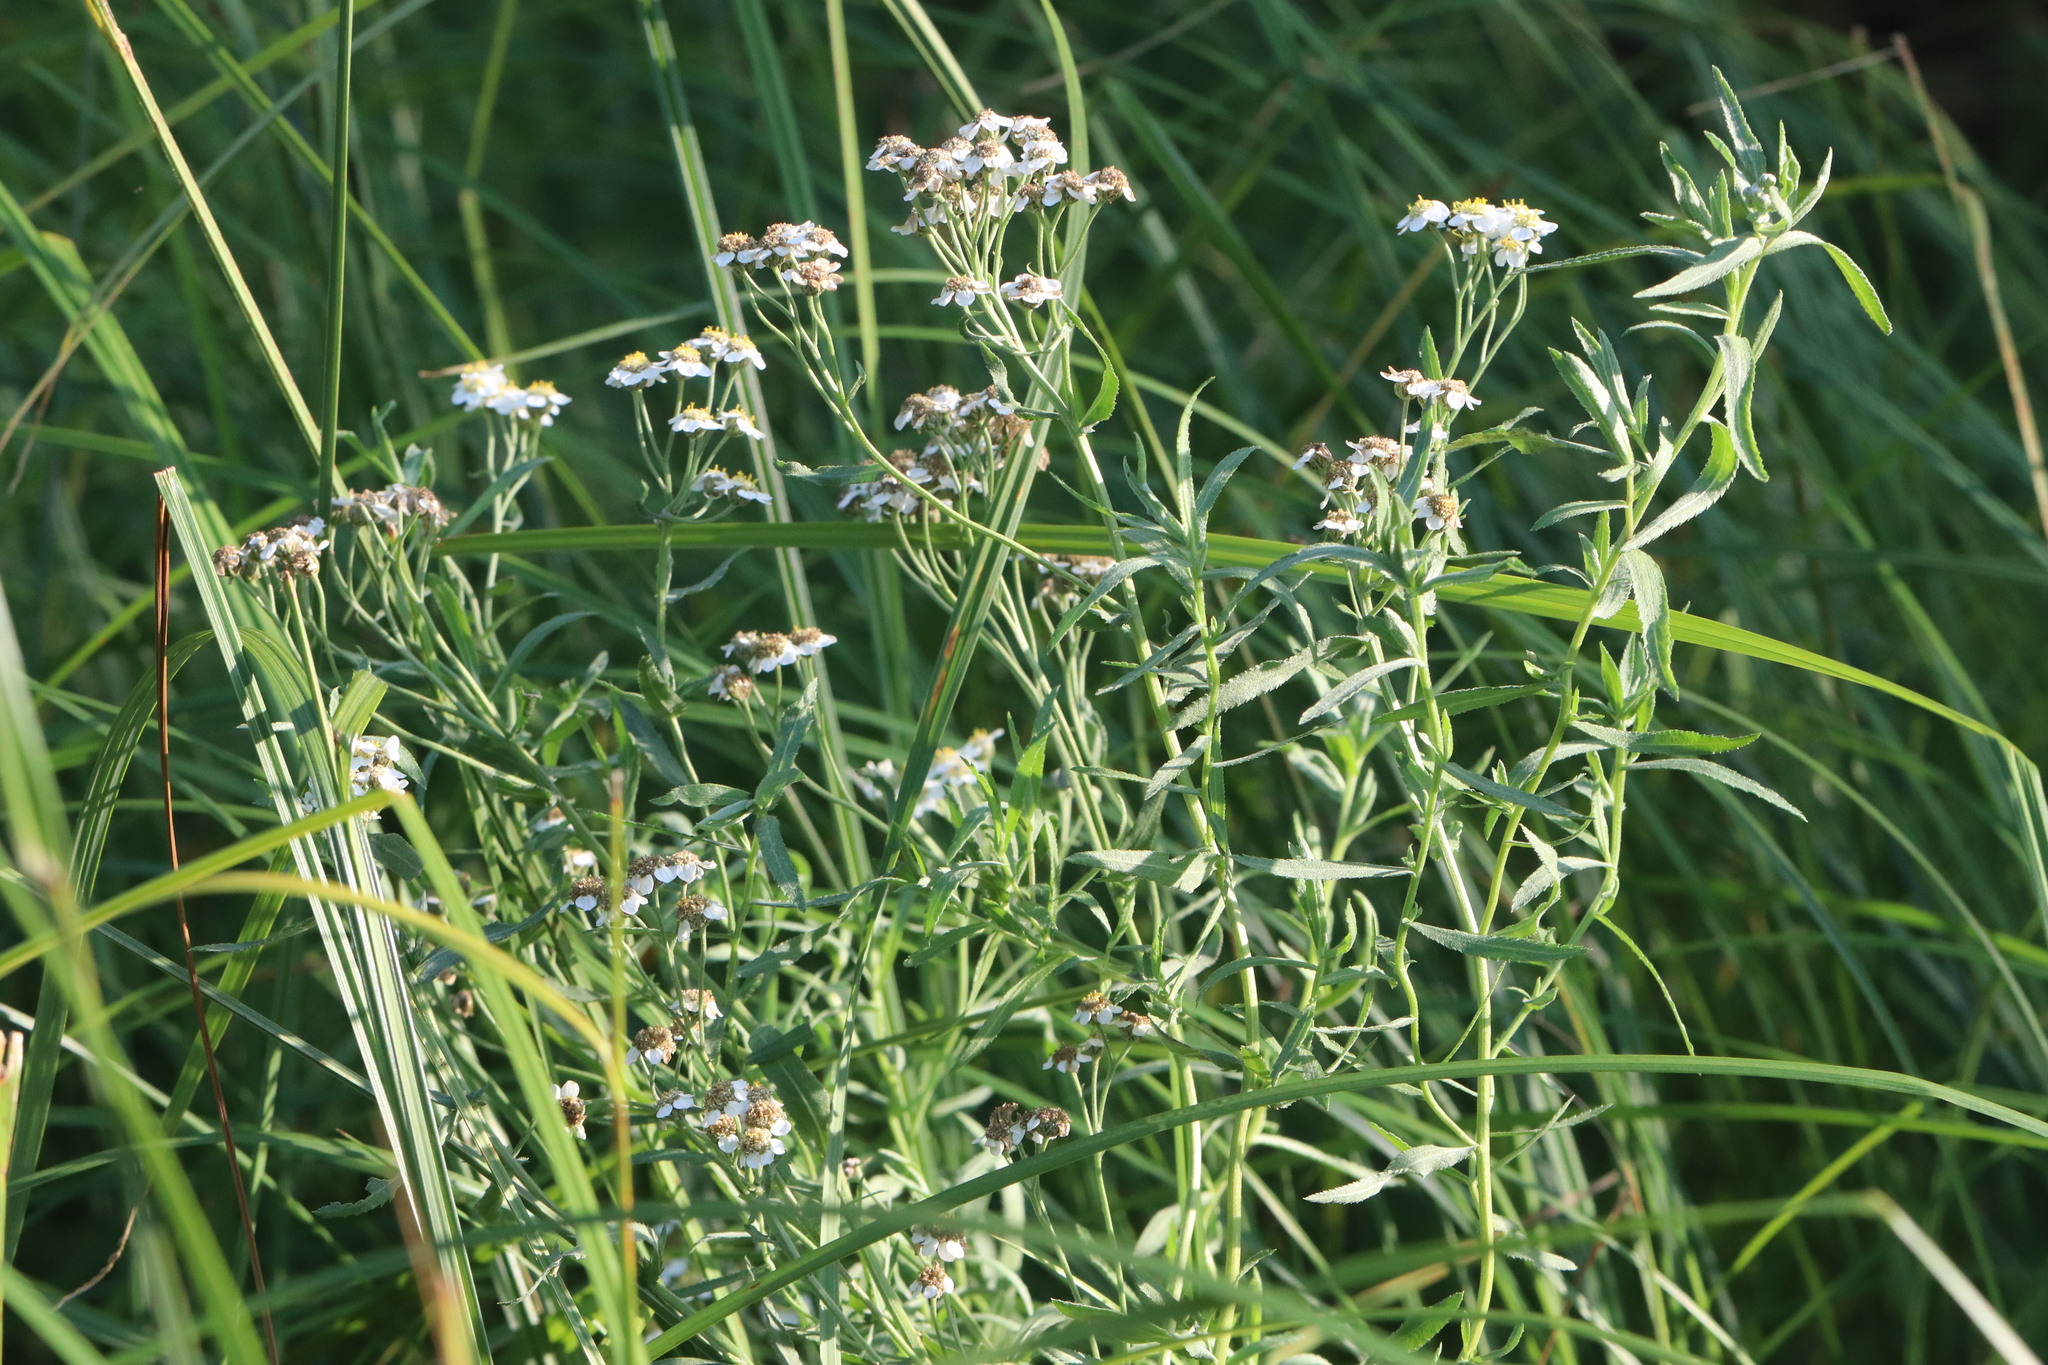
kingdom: Plantae
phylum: Tracheophyta
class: Magnoliopsida
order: Asterales
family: Asteraceae
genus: Achillea
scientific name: Achillea salicifolia
